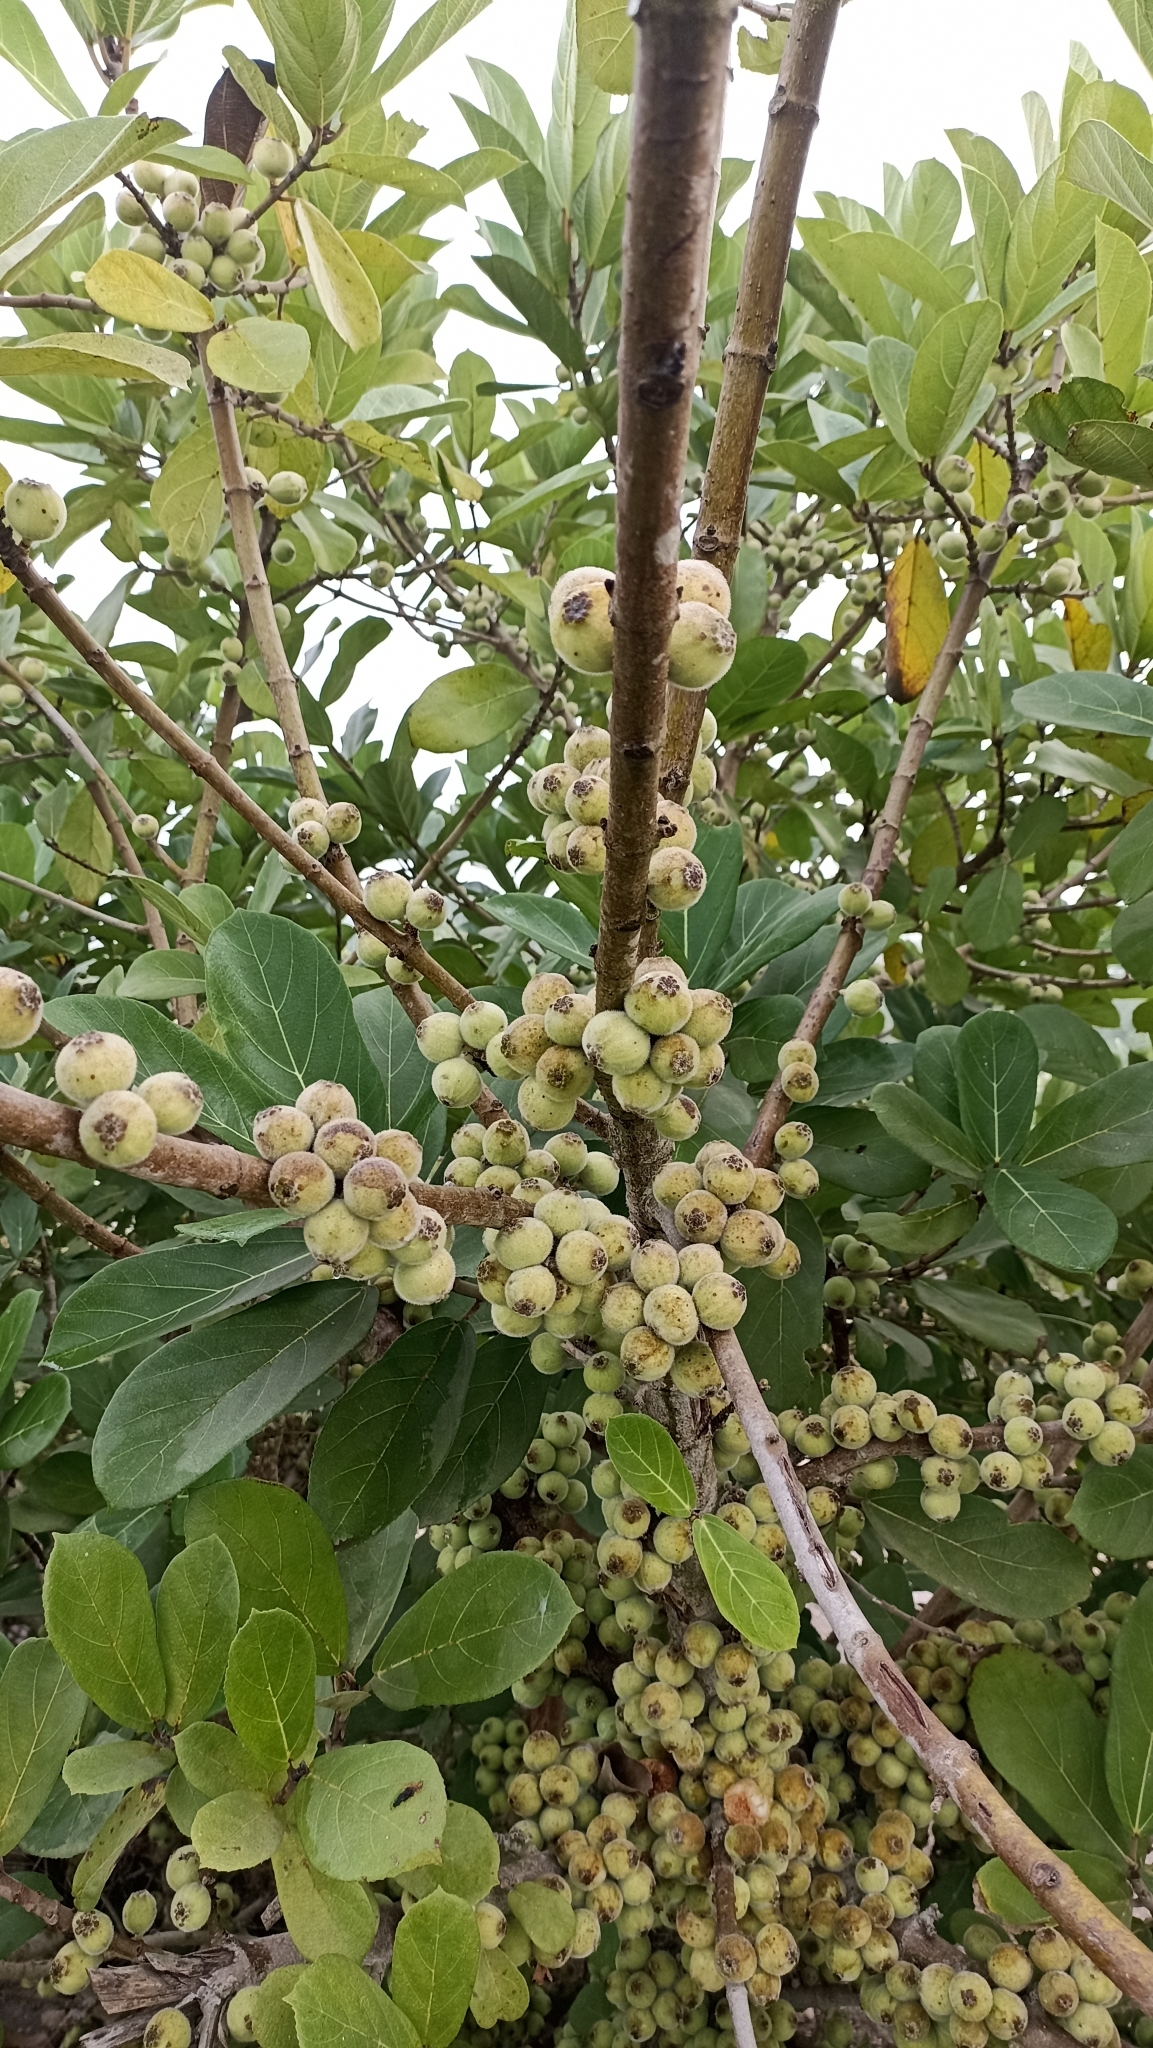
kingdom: Plantae
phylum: Tracheophyta
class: Magnoliopsida
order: Rosales
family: Moraceae
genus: Ficus
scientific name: Ficus hispida
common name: Hairy fig
